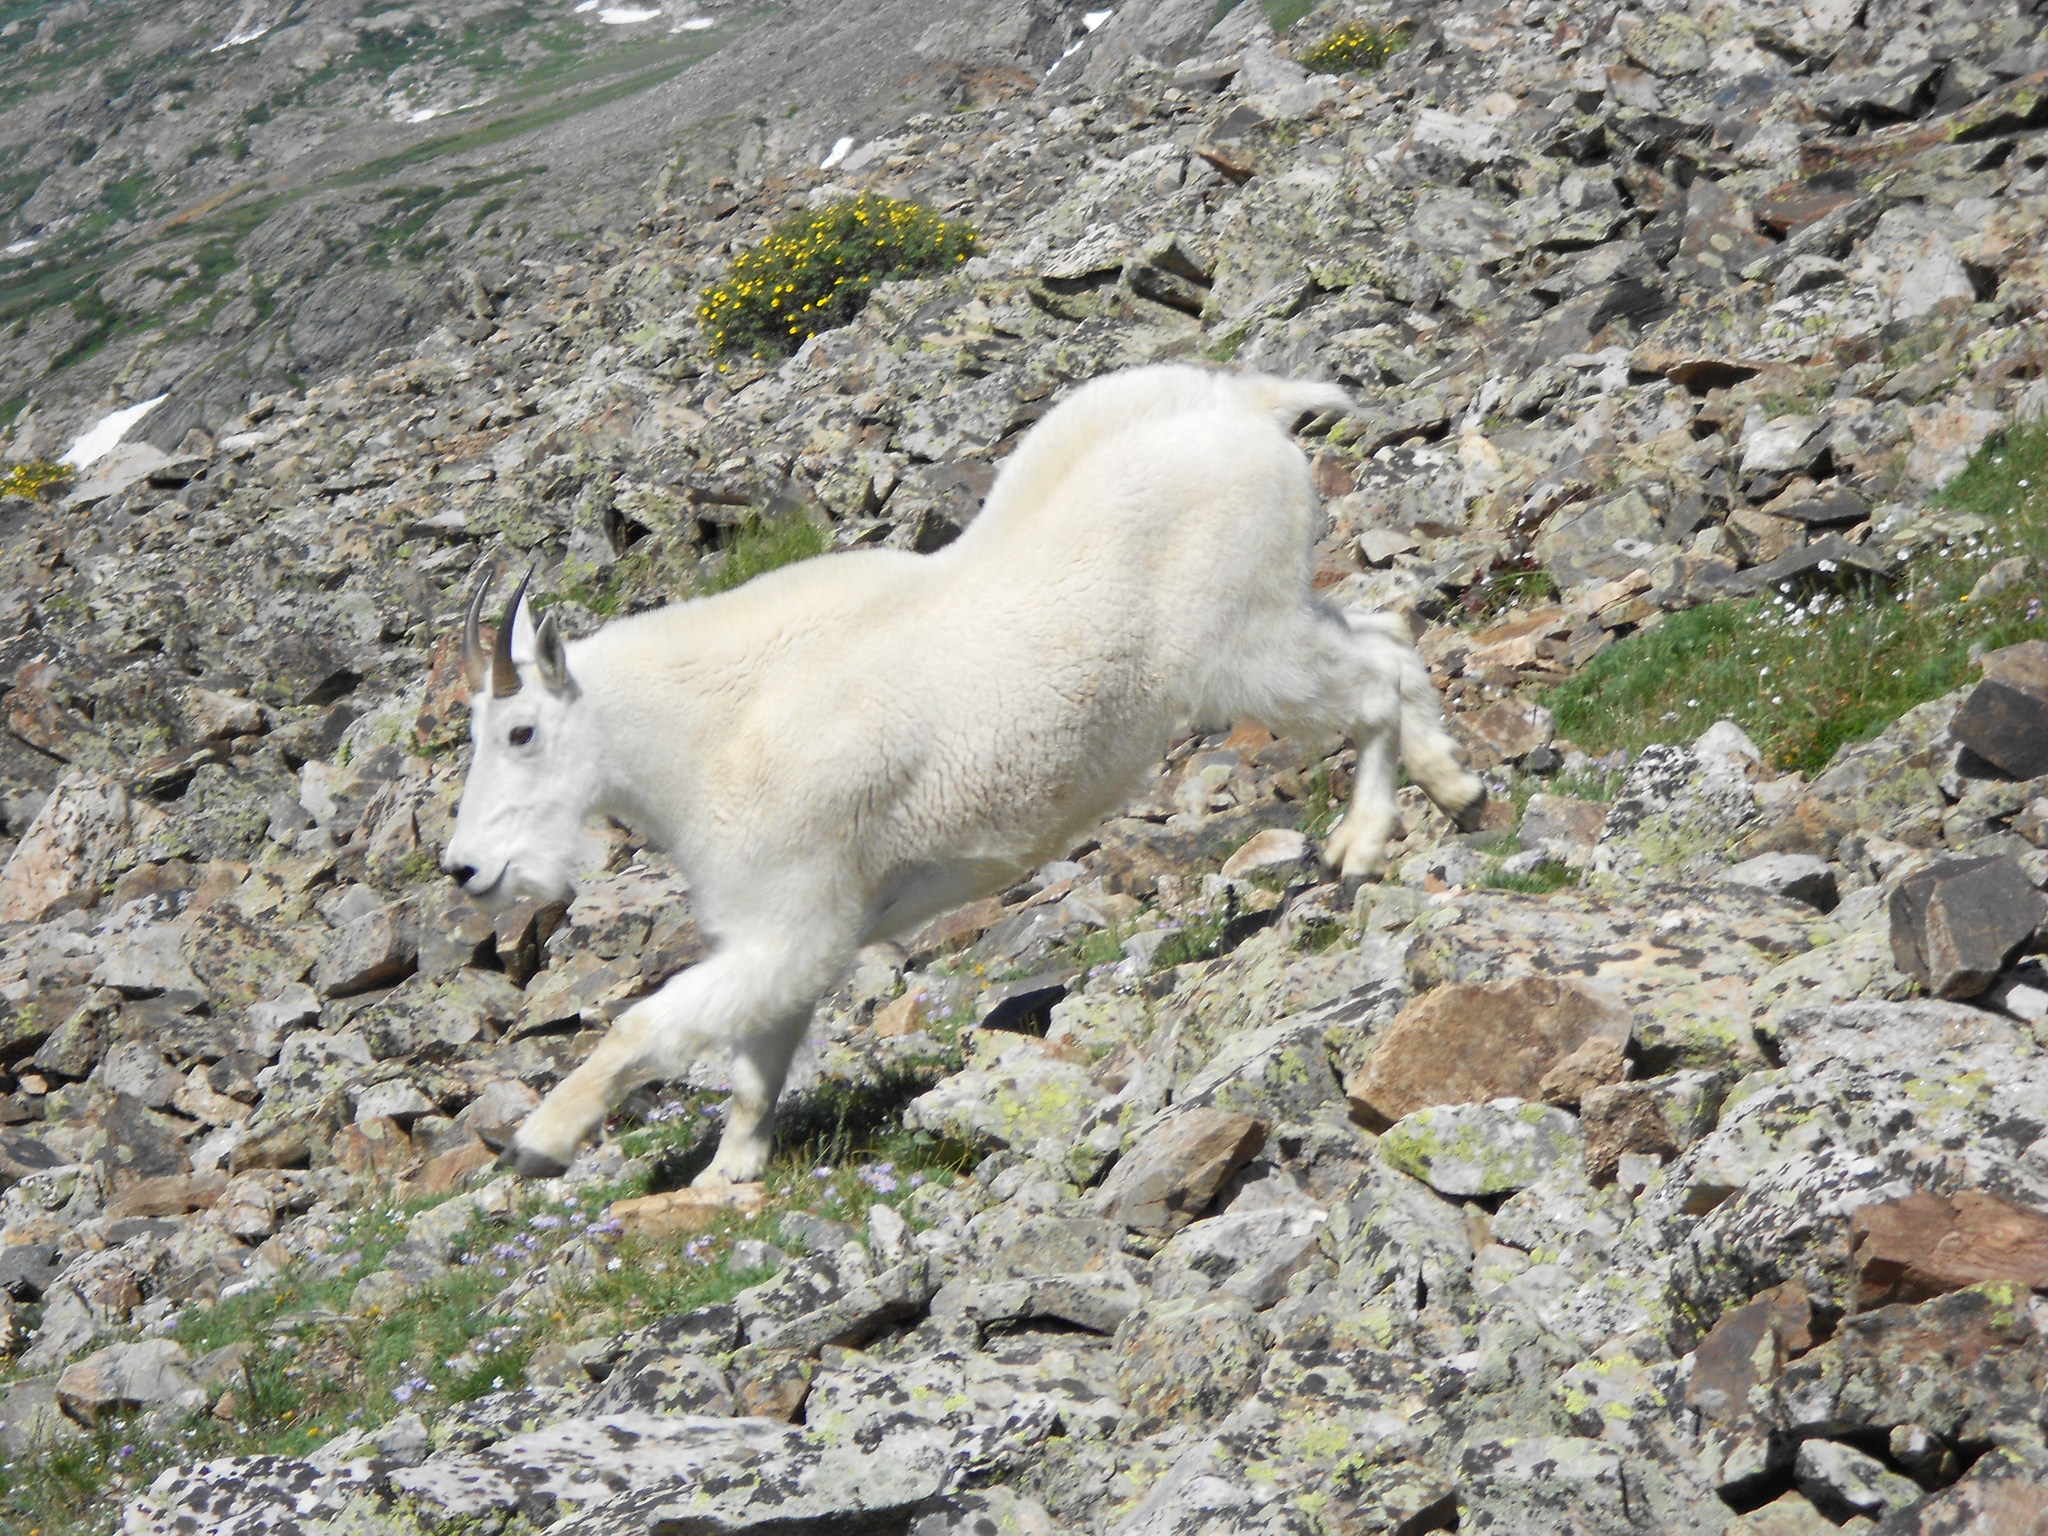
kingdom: Animalia
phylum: Chordata
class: Mammalia
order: Artiodactyla
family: Bovidae
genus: Oreamnos
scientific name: Oreamnos americanus
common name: Mountain goat
